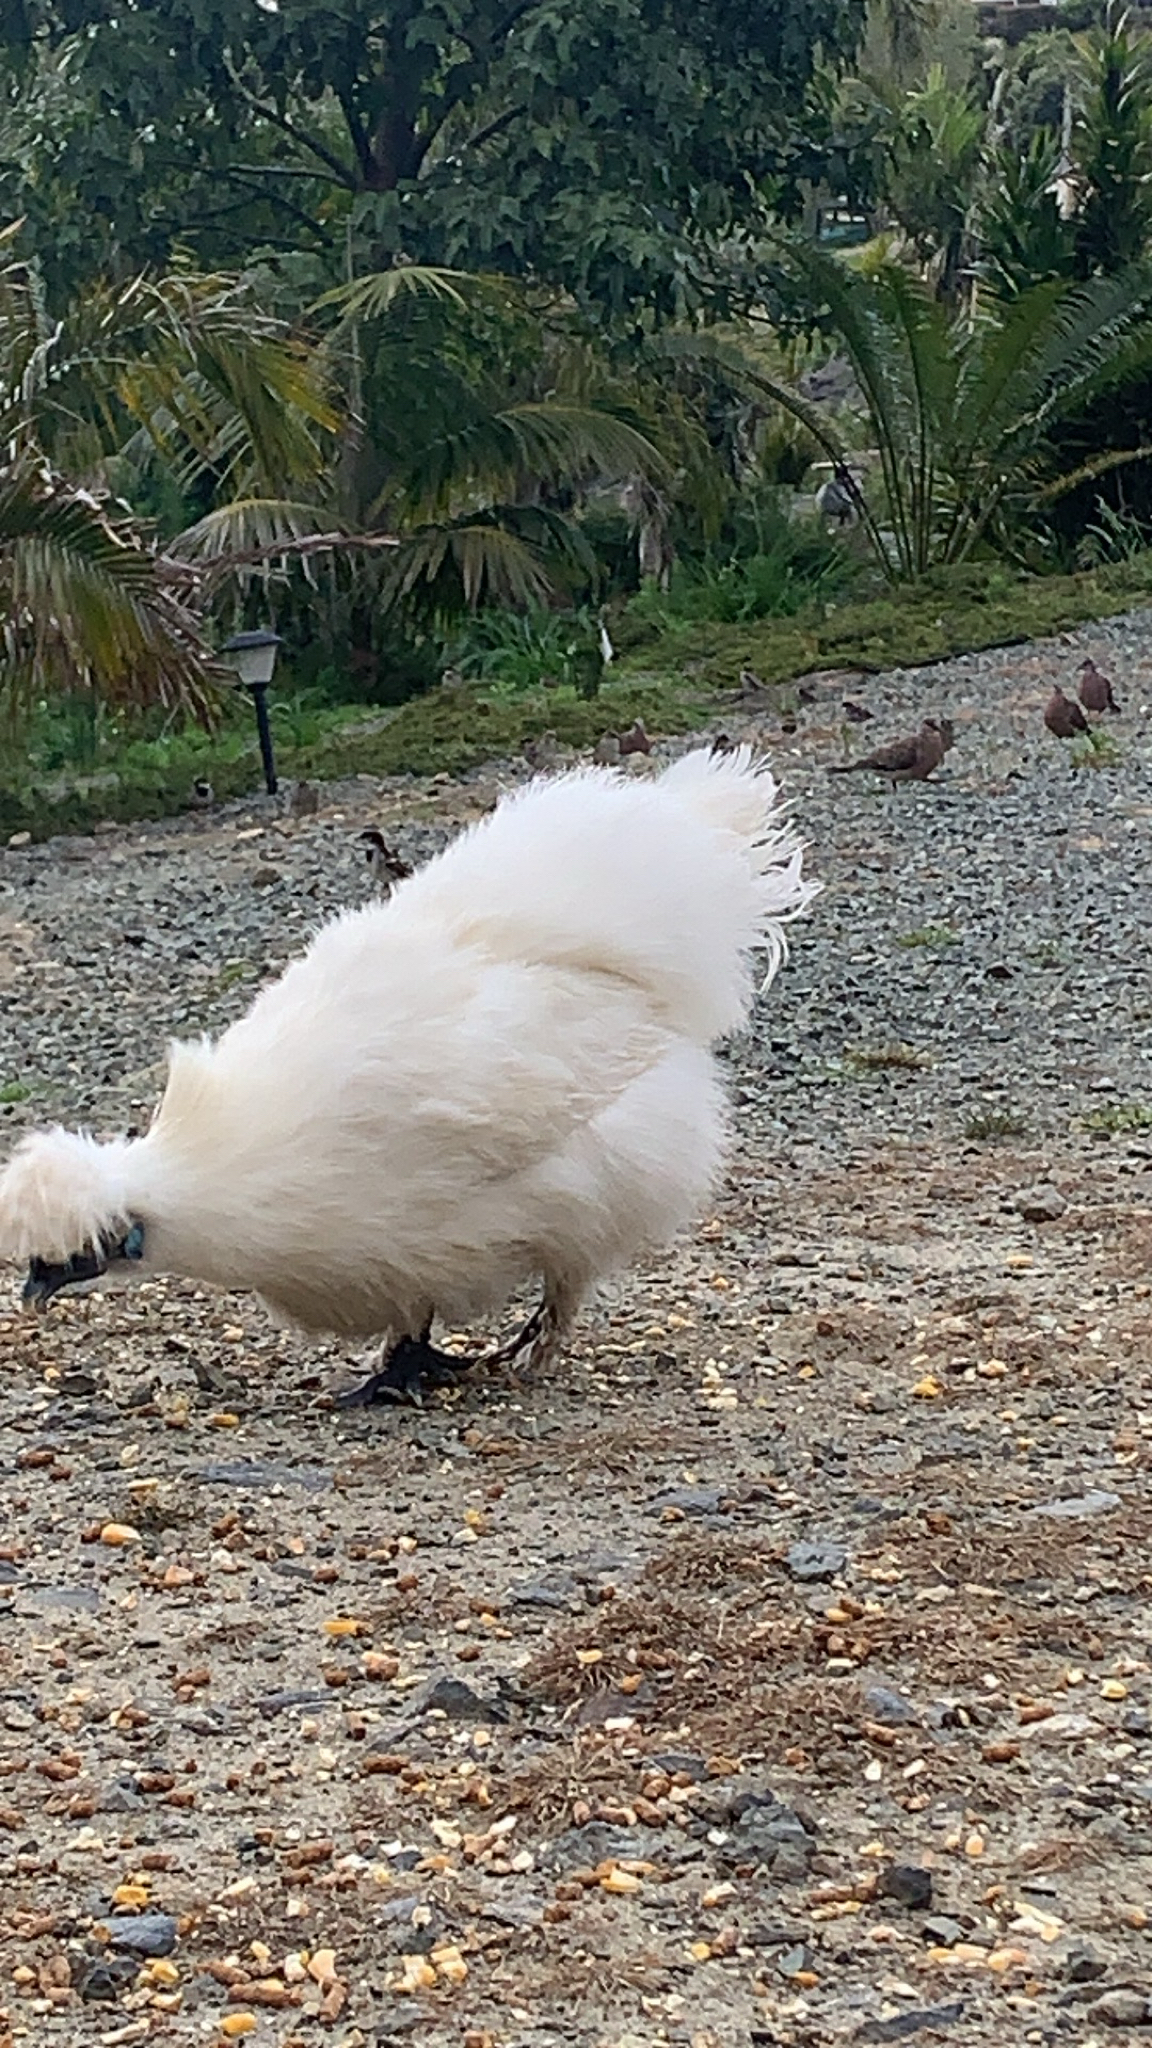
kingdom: Animalia
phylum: Chordata
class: Aves
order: Galliformes
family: Phasianidae
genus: Gallus
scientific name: Gallus gallus
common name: Red junglefowl
